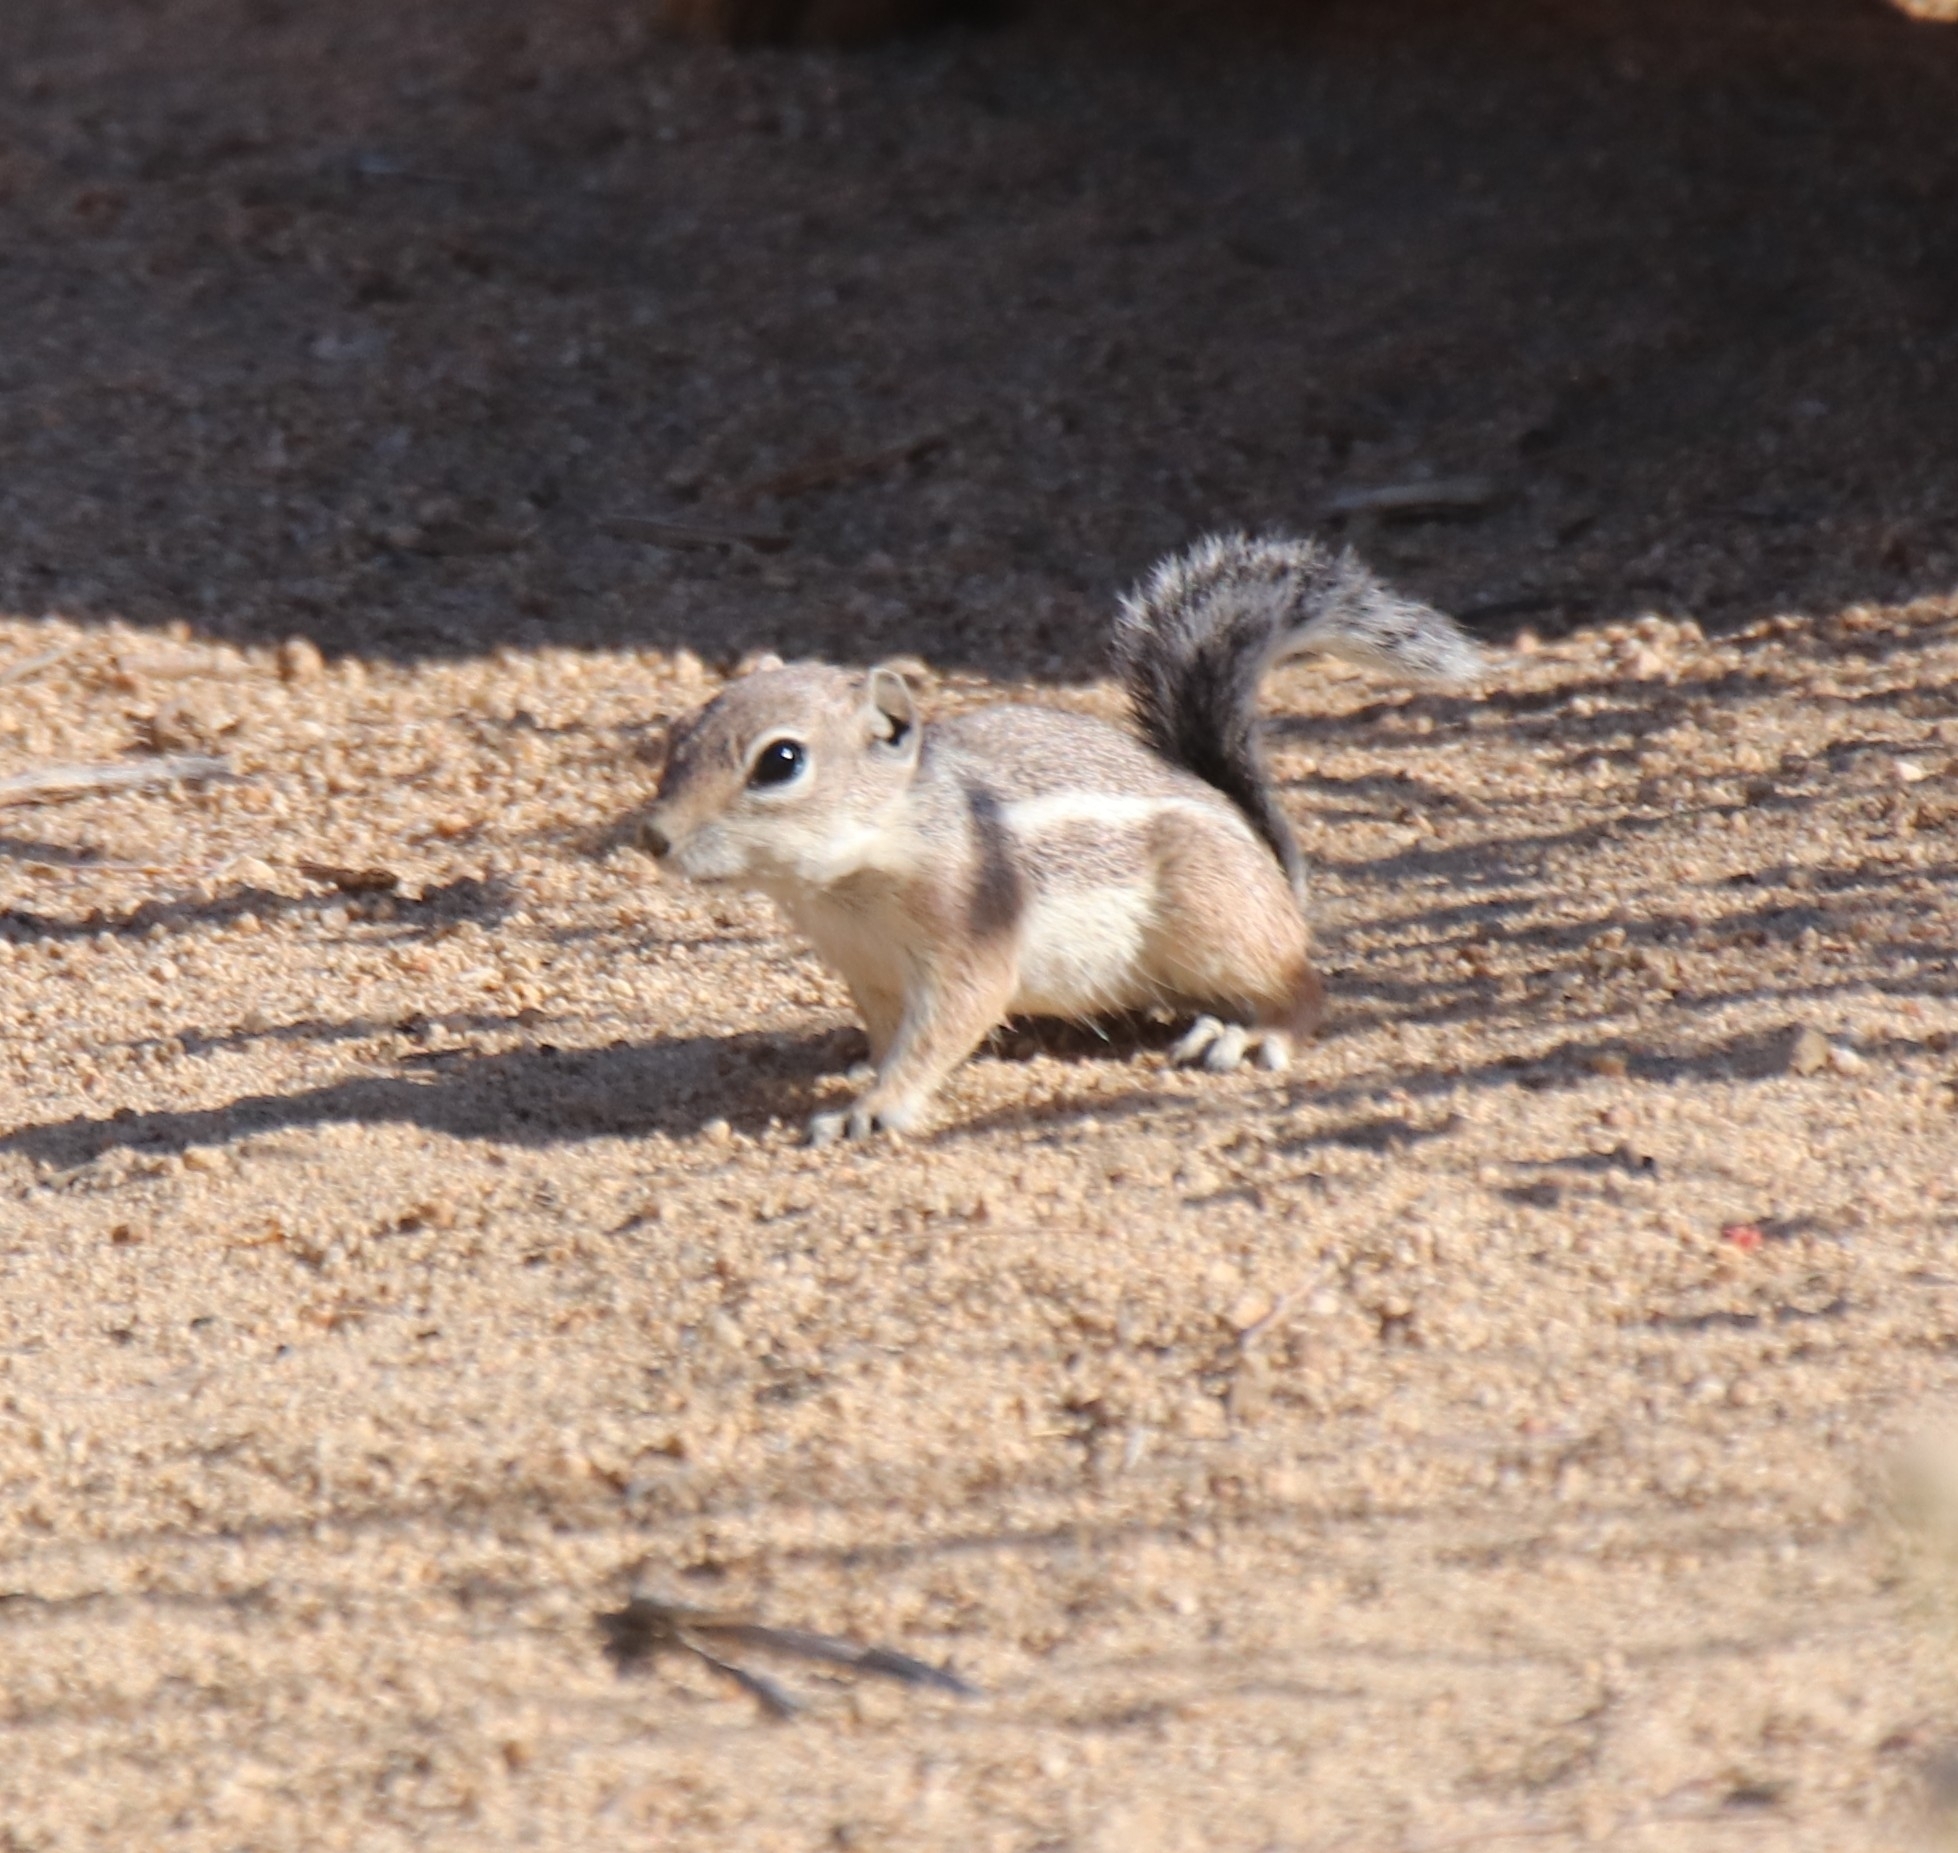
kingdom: Animalia
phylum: Chordata
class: Mammalia
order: Rodentia
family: Sciuridae
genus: Ammospermophilus
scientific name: Ammospermophilus leucurus
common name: White-tailed antelope squirrel
